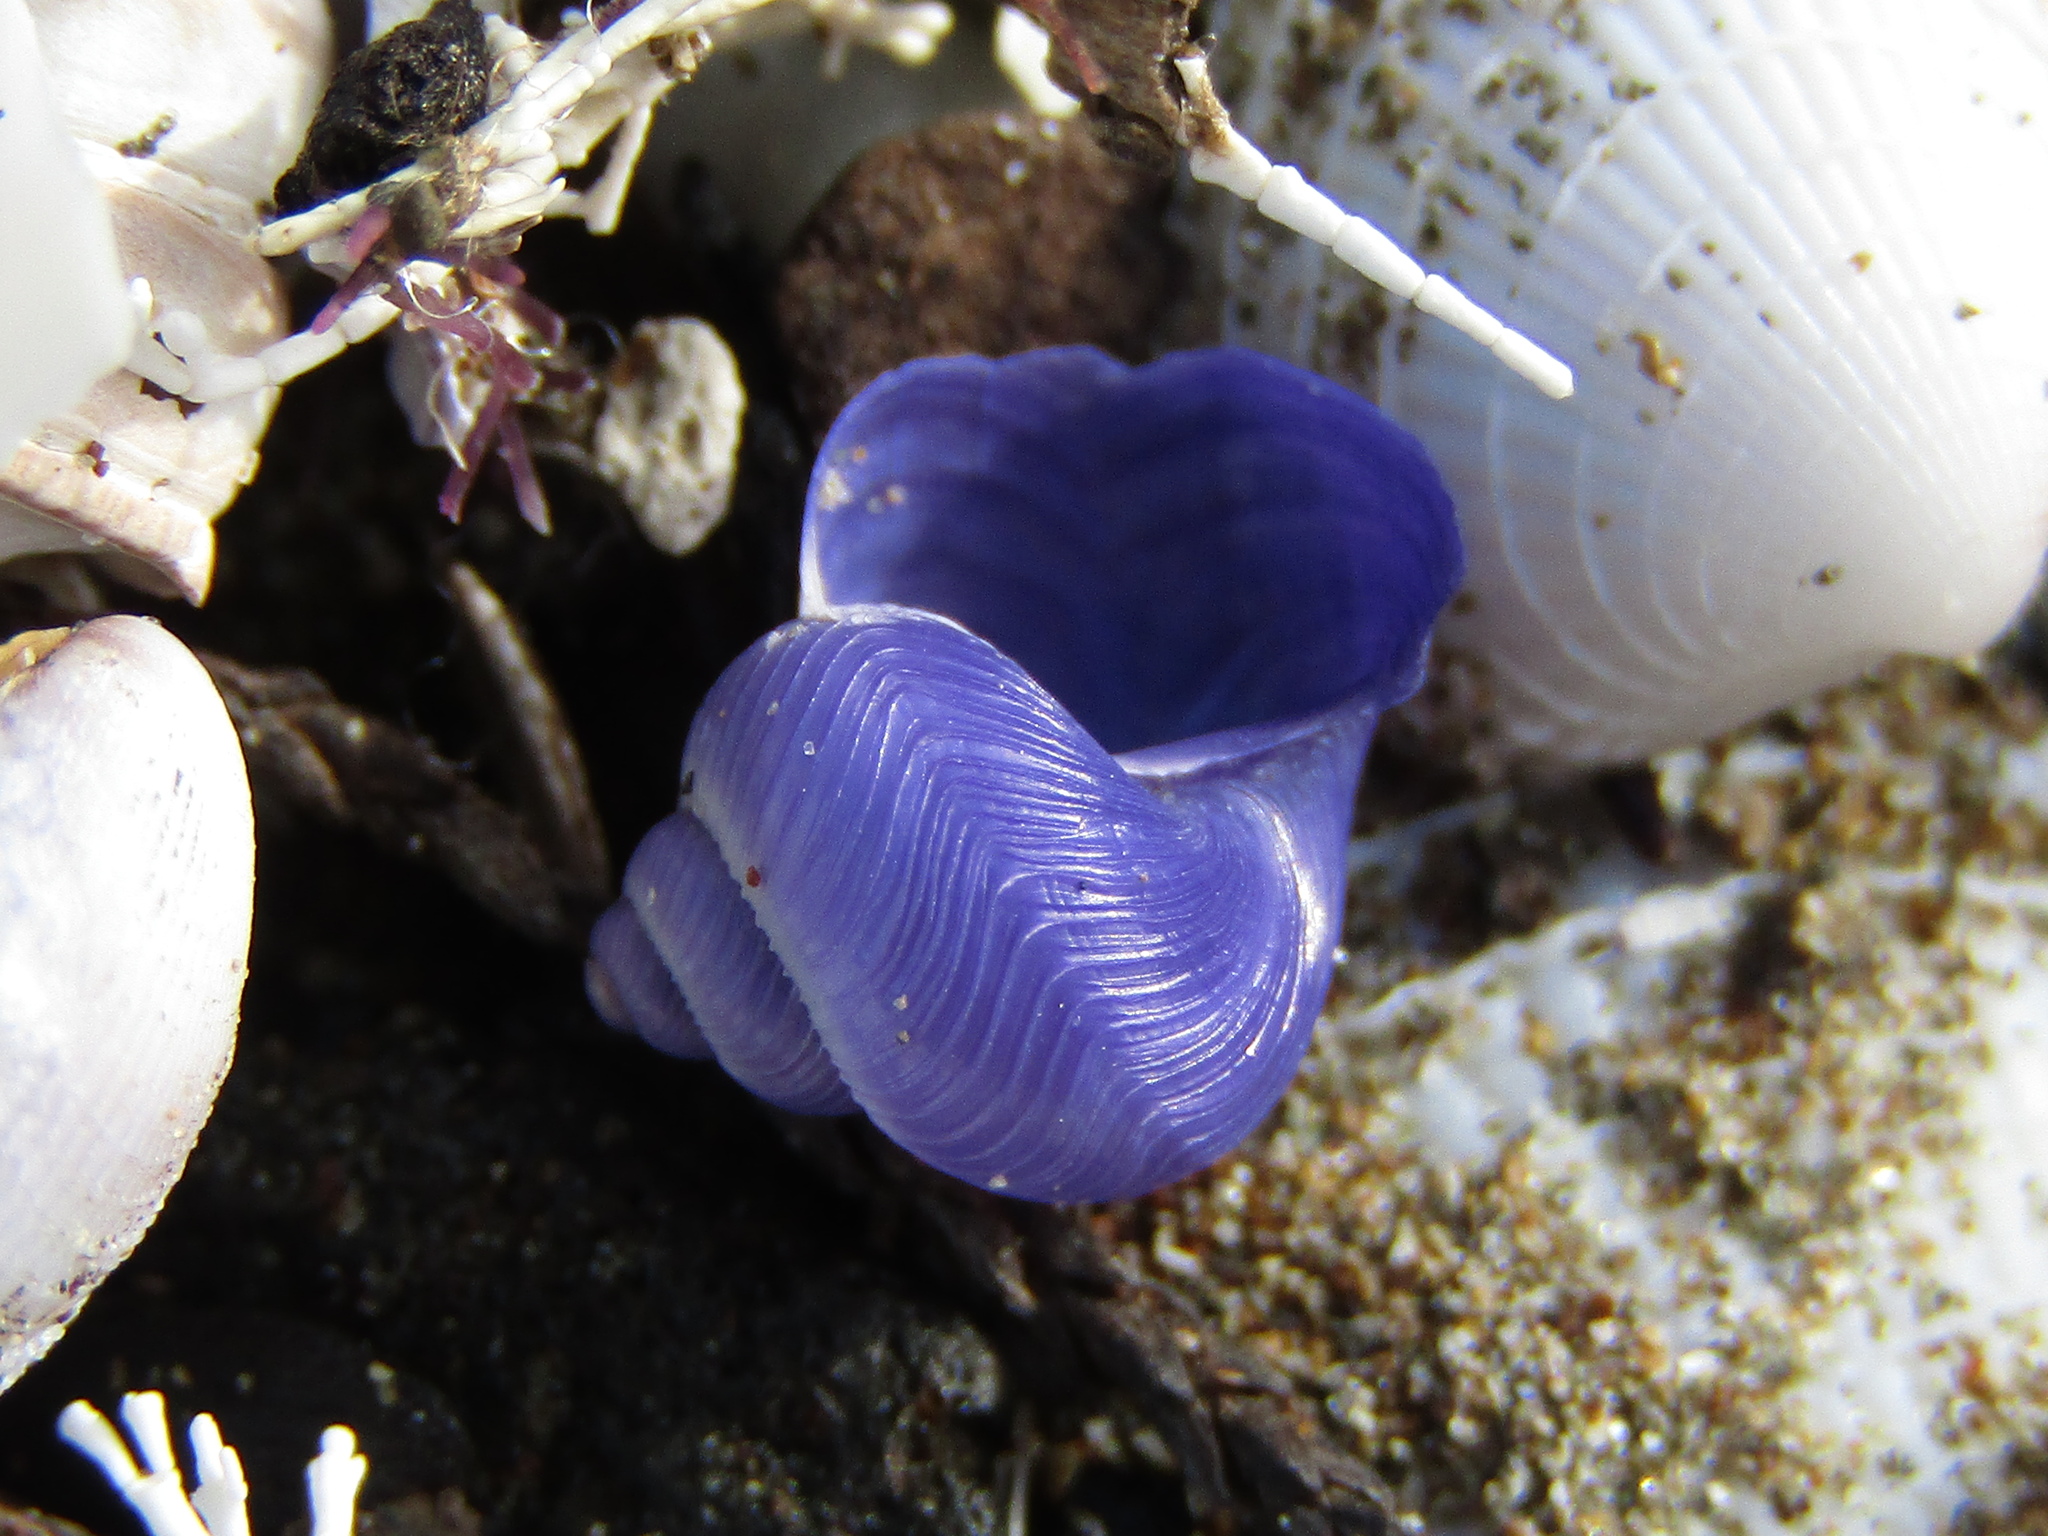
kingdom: Animalia
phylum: Mollusca
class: Gastropoda
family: Epitoniidae
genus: Janthina
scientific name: Janthina exigua
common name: Dwarf janthina
